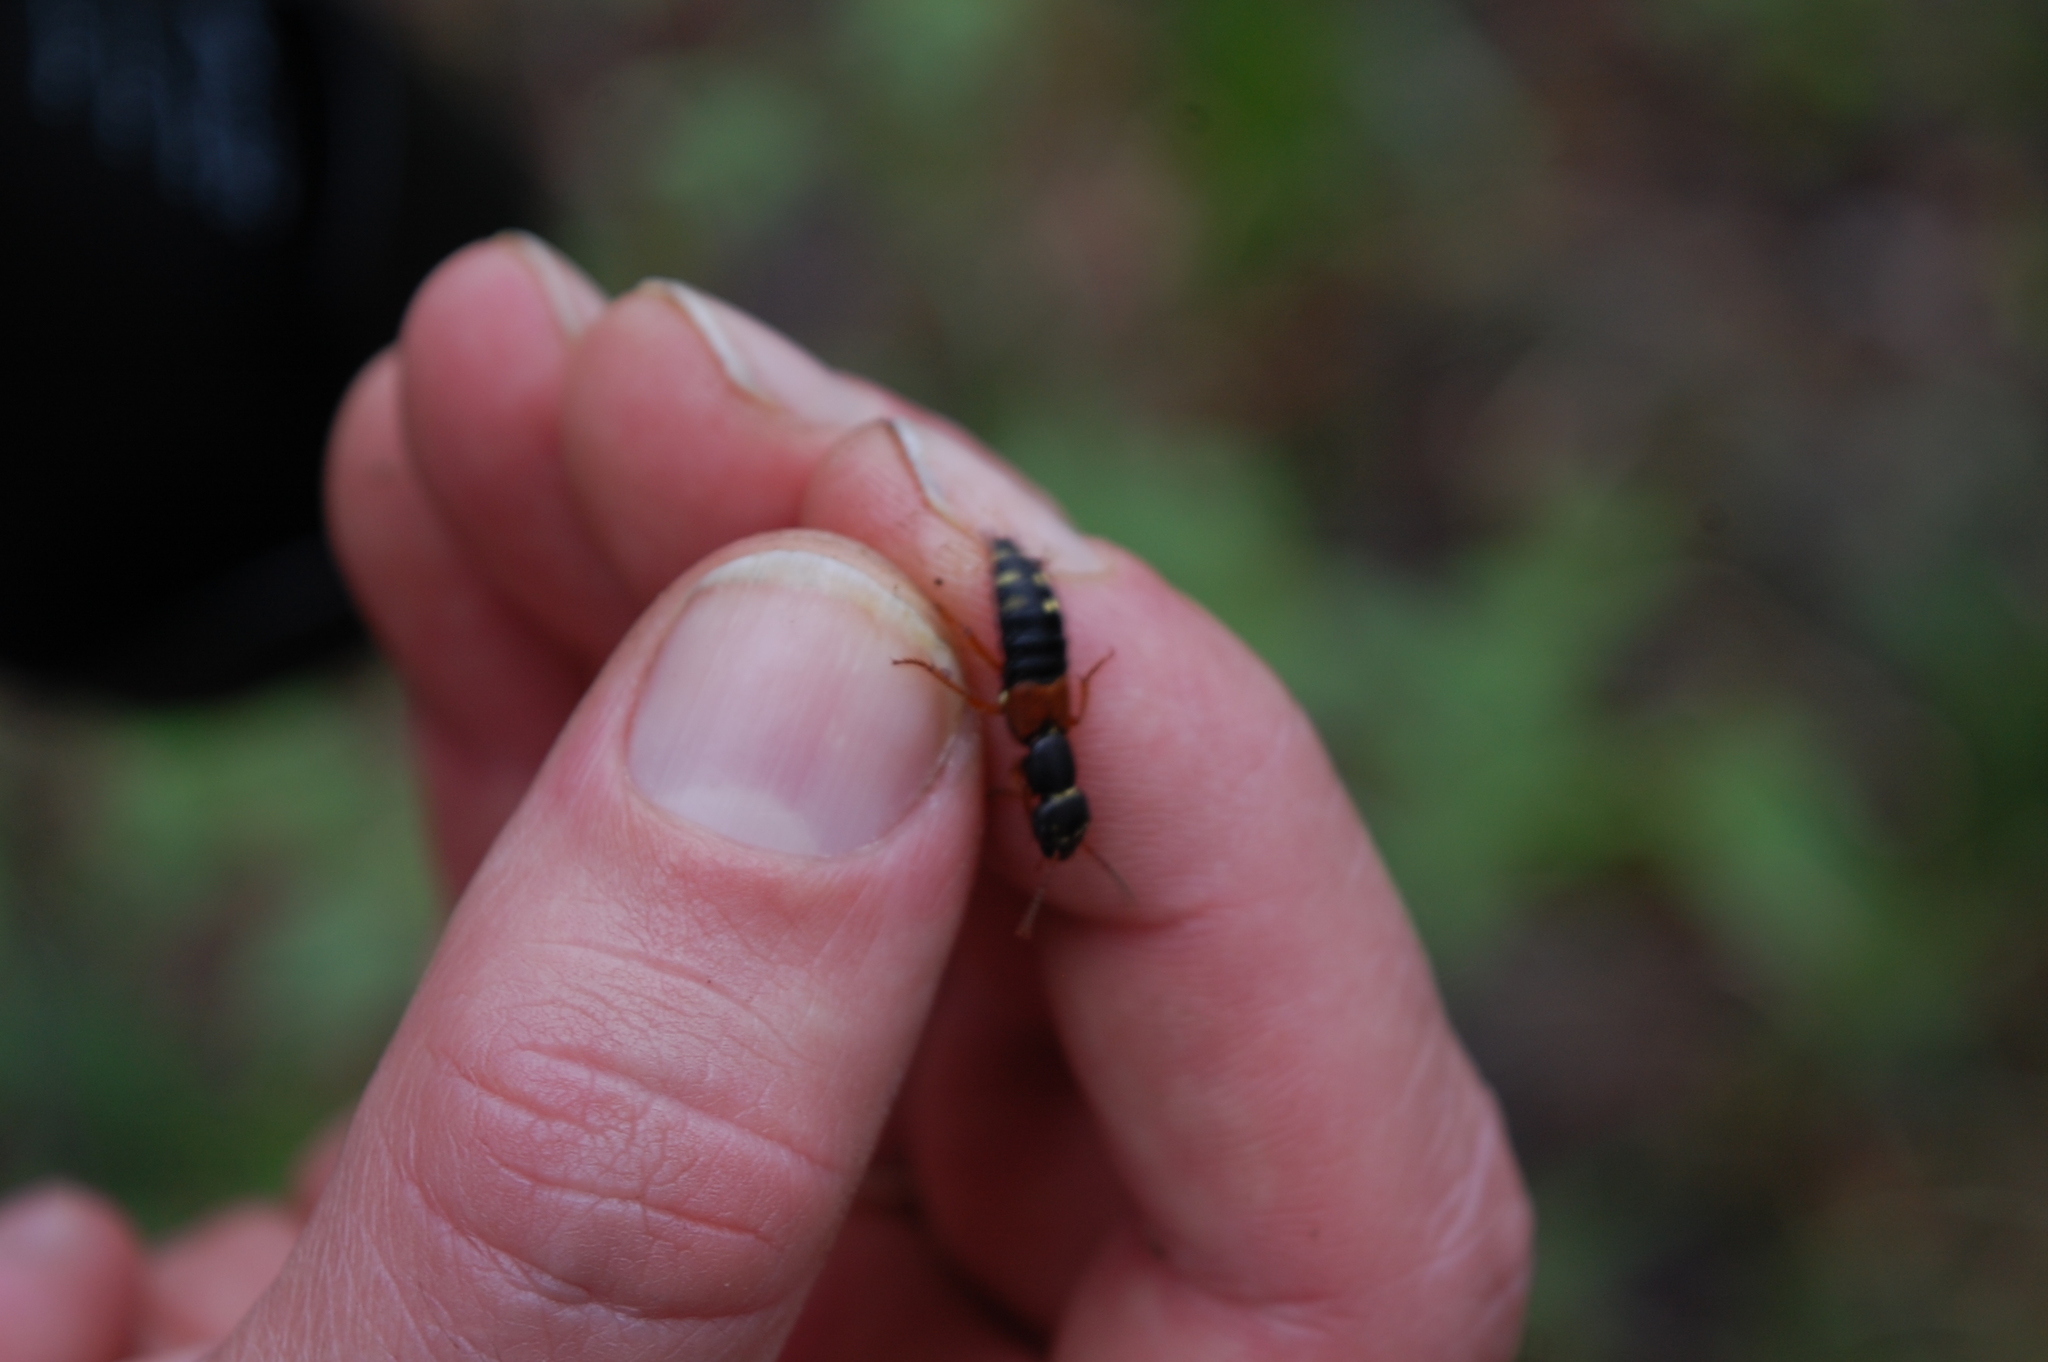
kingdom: Animalia
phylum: Arthropoda
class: Insecta
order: Coleoptera
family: Staphylinidae
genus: Staphylinus
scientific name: Staphylinus erythropterus
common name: Staph beetle
